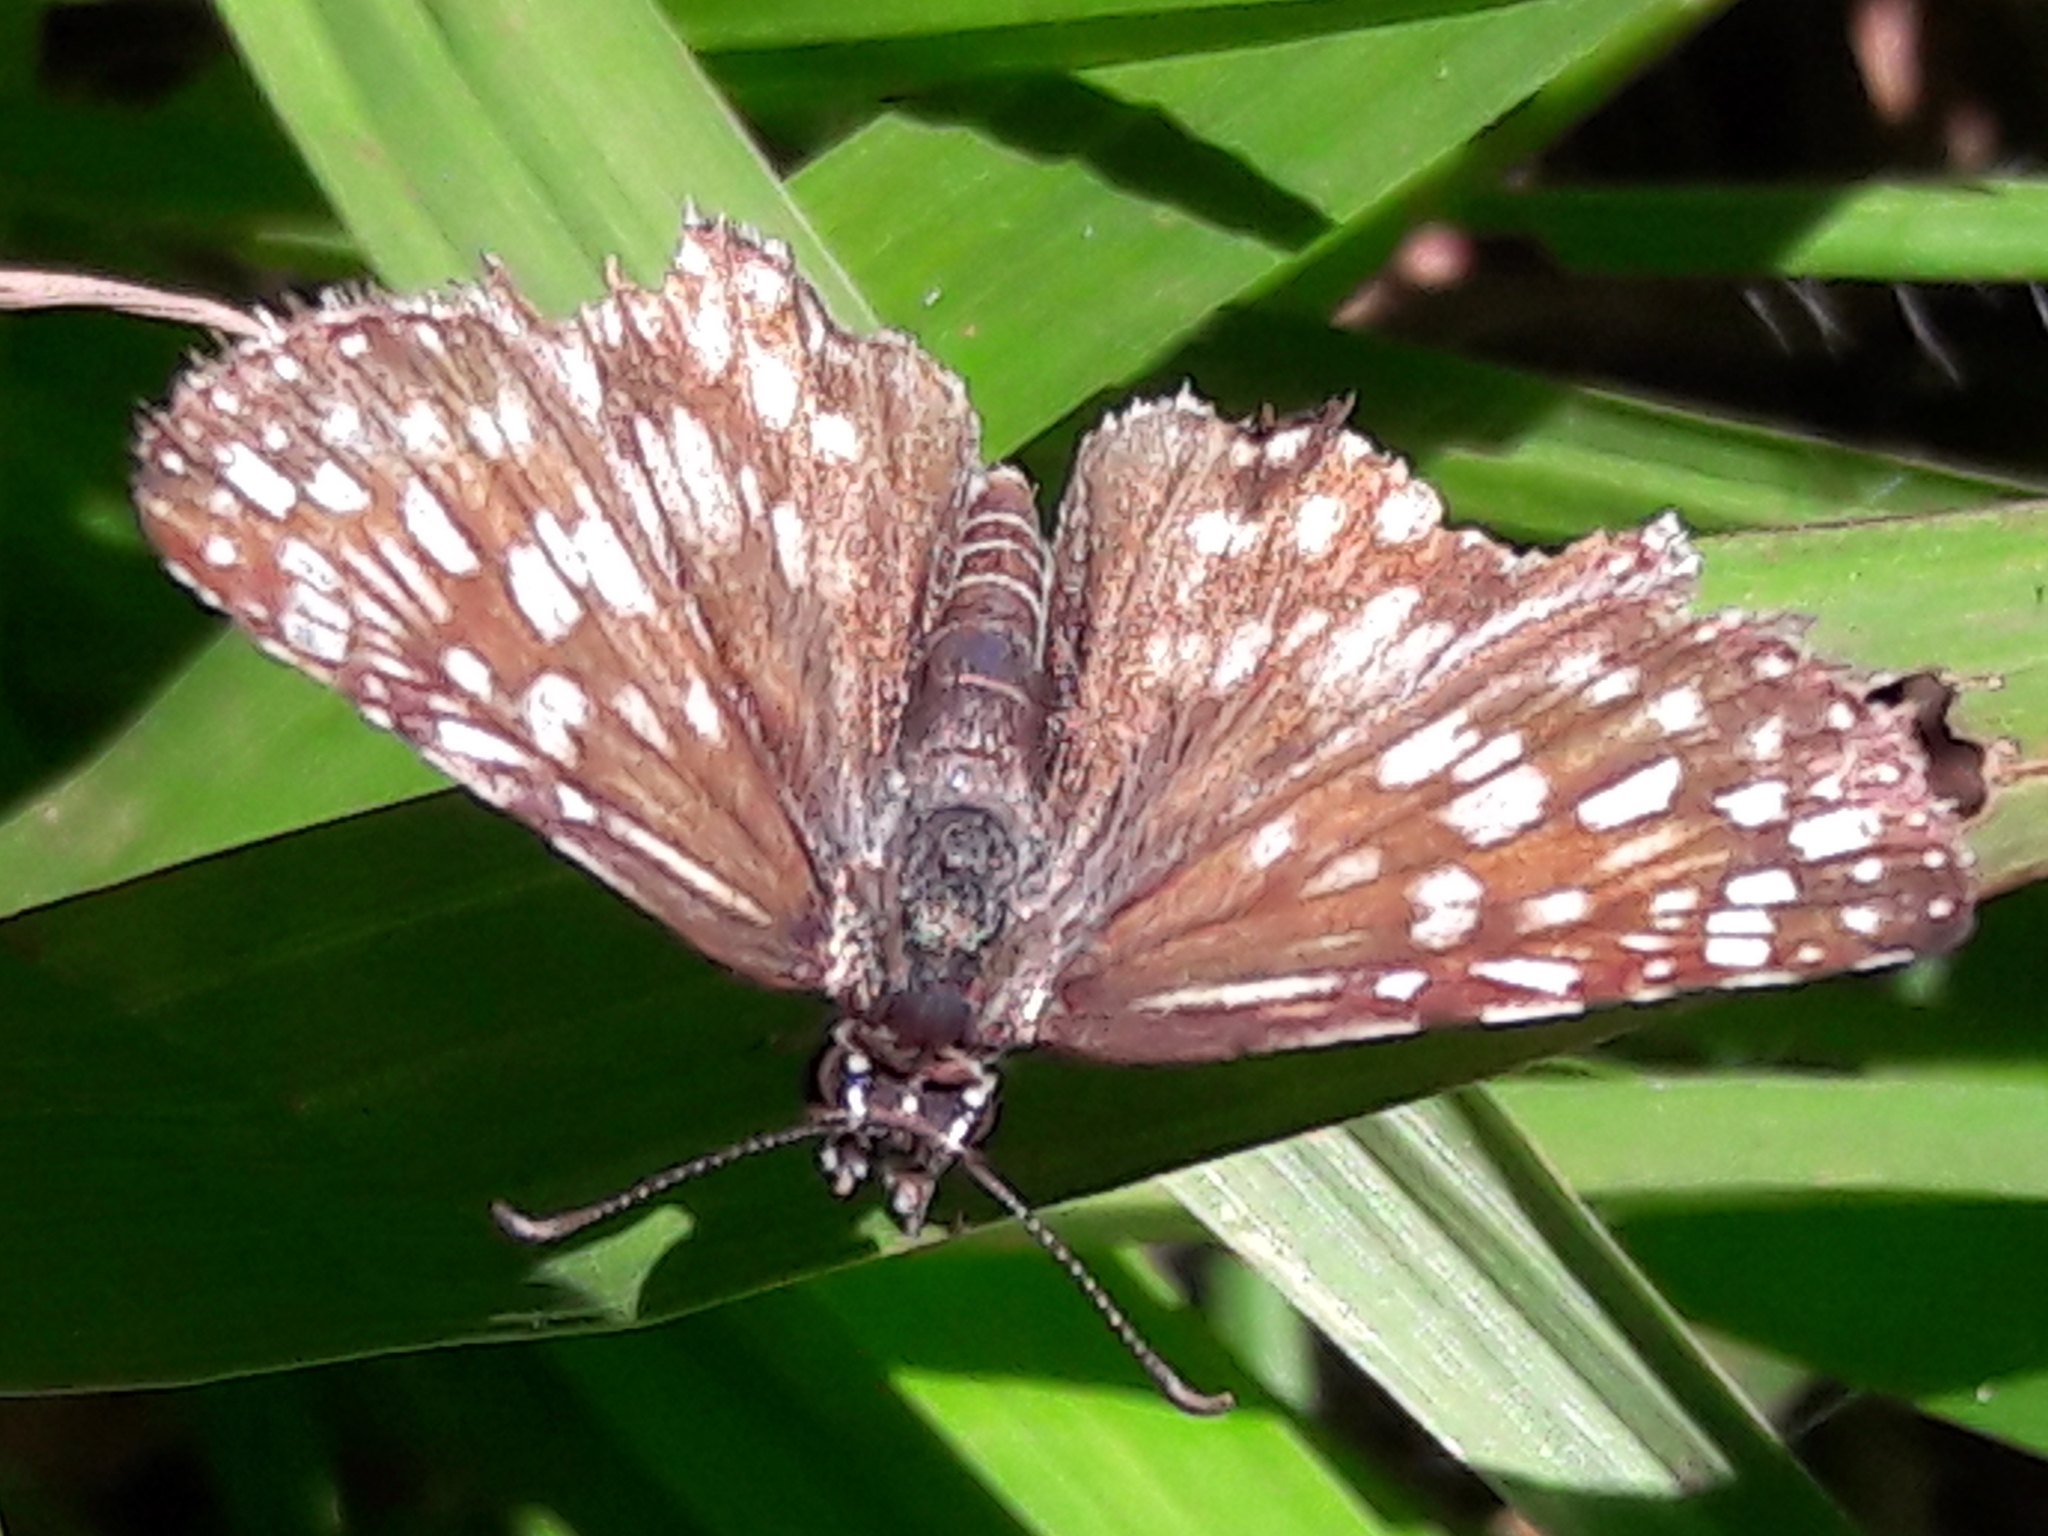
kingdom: Animalia
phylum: Arthropoda
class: Insecta
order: Lepidoptera
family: Hesperiidae
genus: Pyrgus
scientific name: Pyrgus oileus
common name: Tropical checkered-skipper
